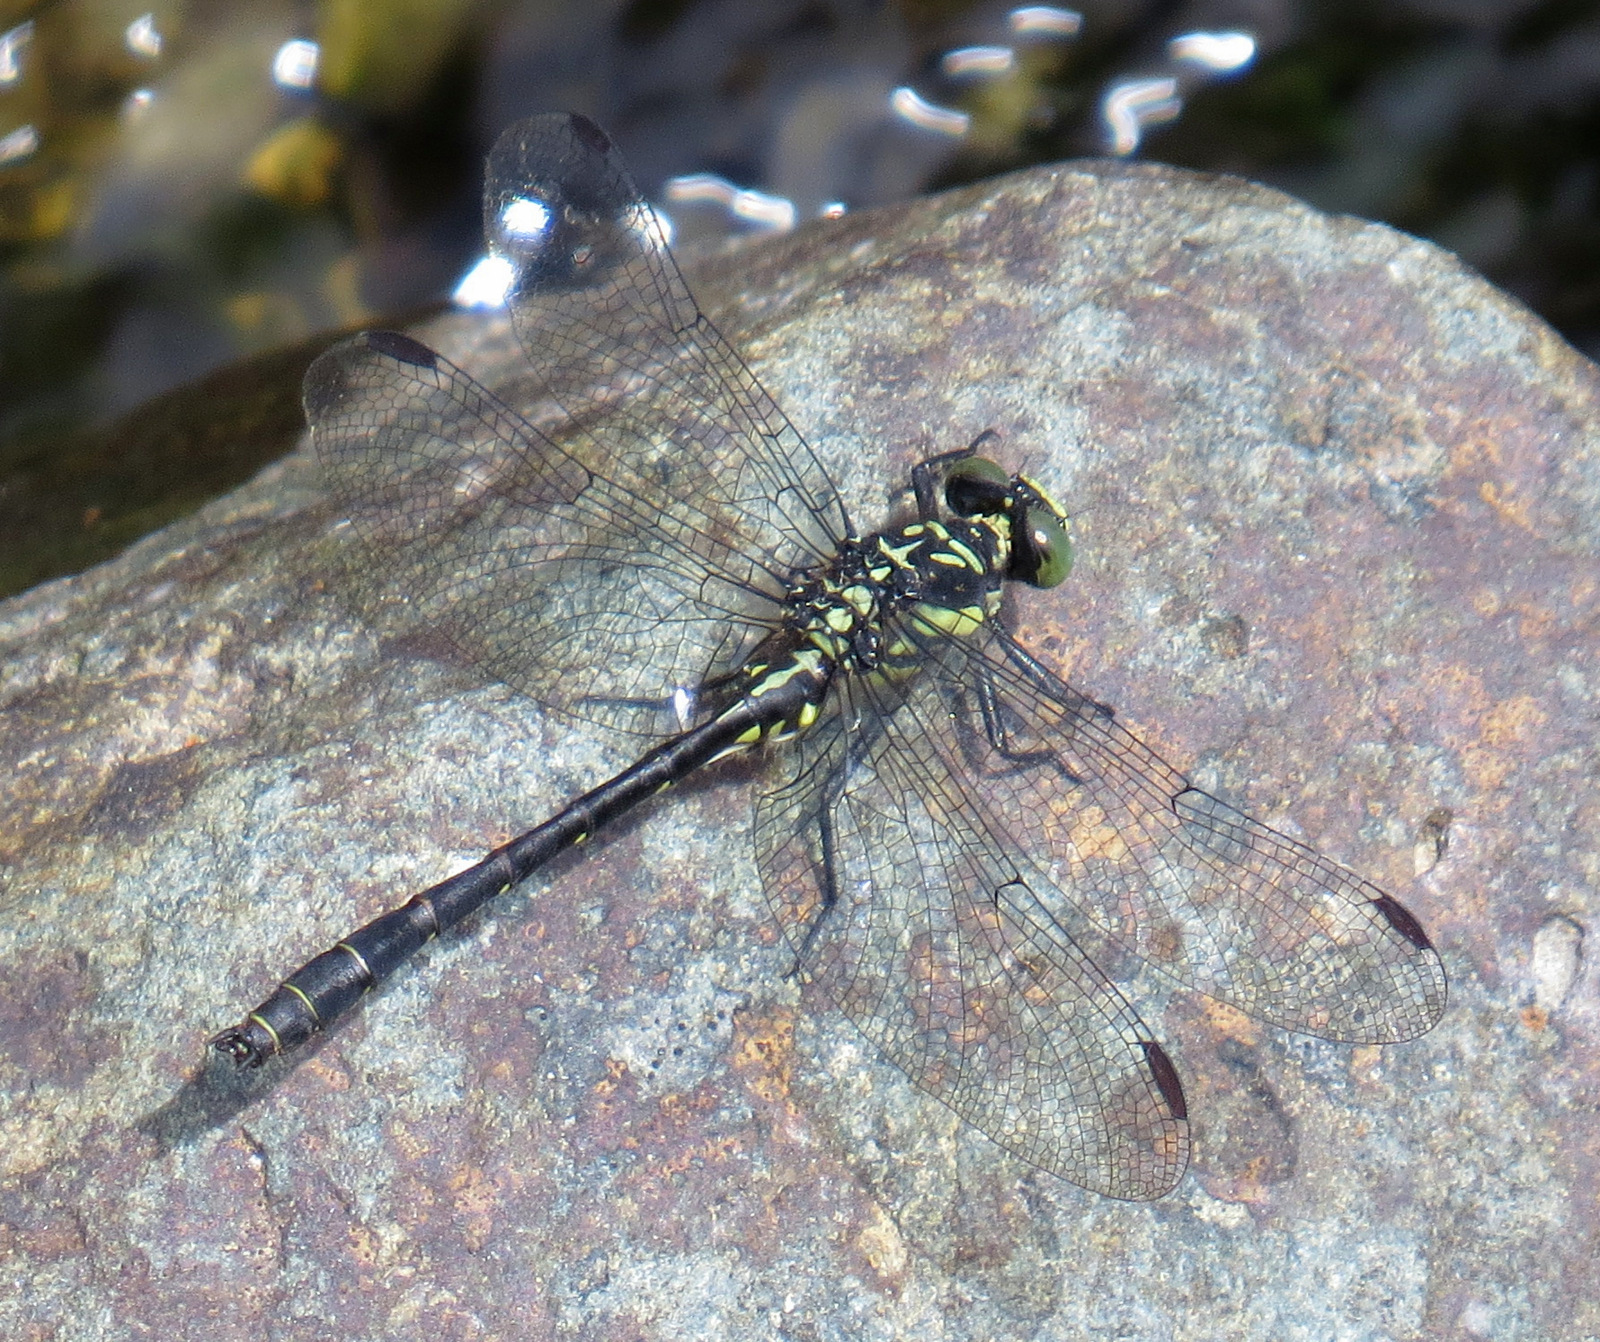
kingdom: Animalia
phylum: Arthropoda
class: Insecta
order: Odonata
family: Gomphidae
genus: Lanthus
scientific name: Lanthus parvulus
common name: Northern pygmy clubtail
